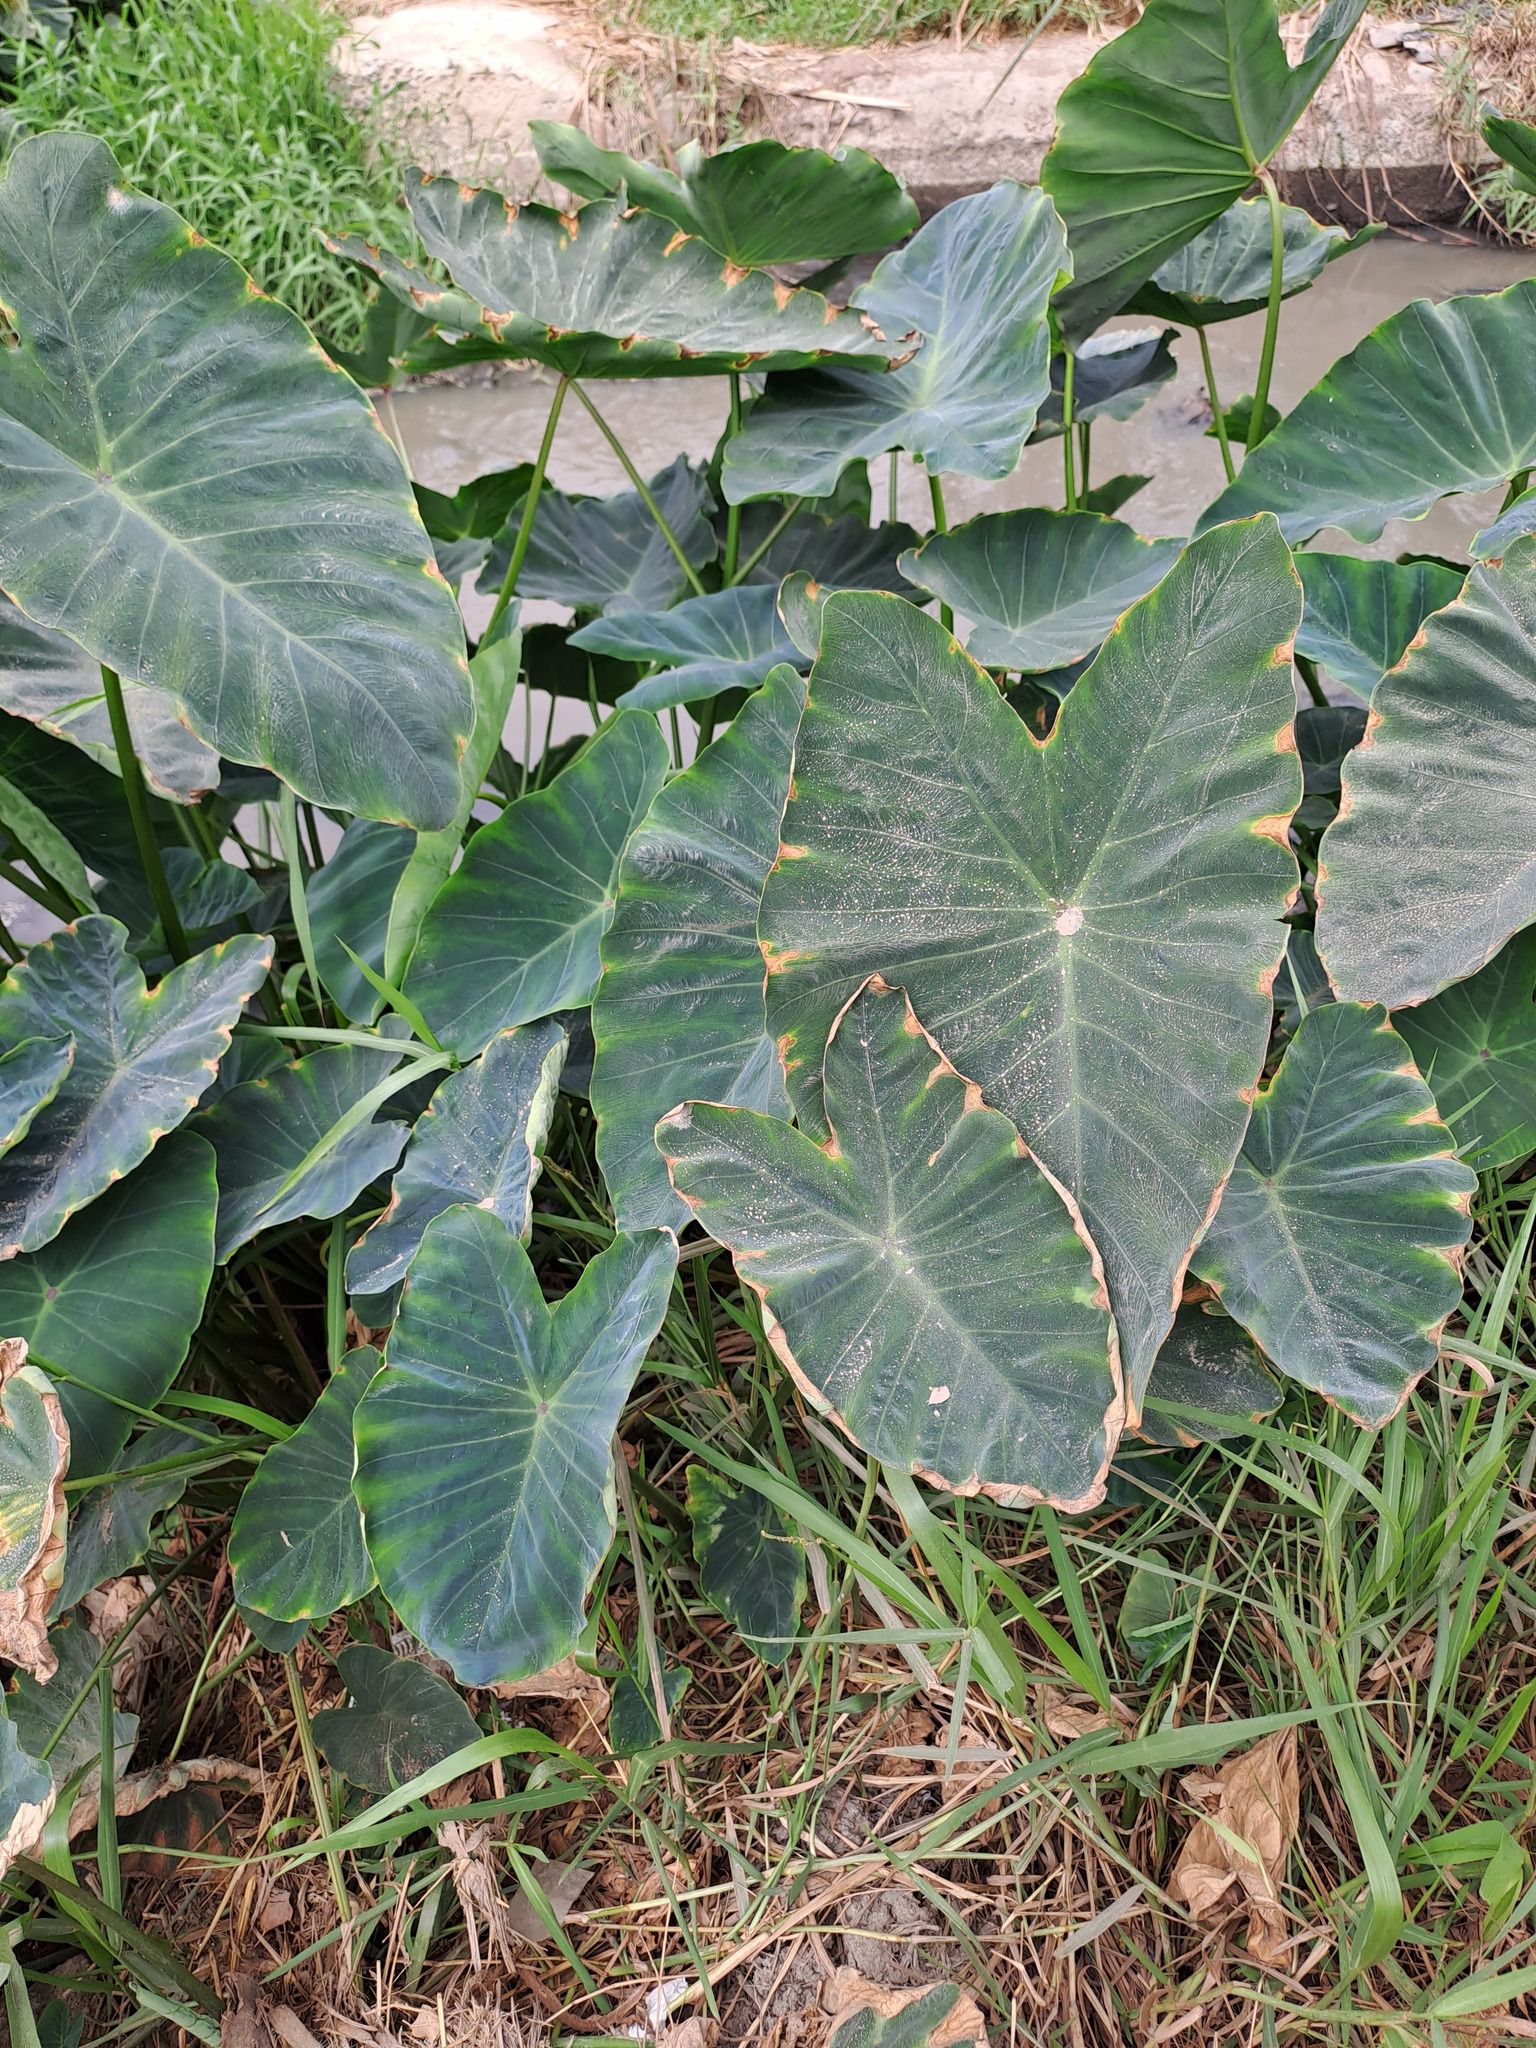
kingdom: Plantae
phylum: Tracheophyta
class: Liliopsida
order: Alismatales
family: Araceae
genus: Colocasia
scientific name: Colocasia esculenta
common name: Taro
